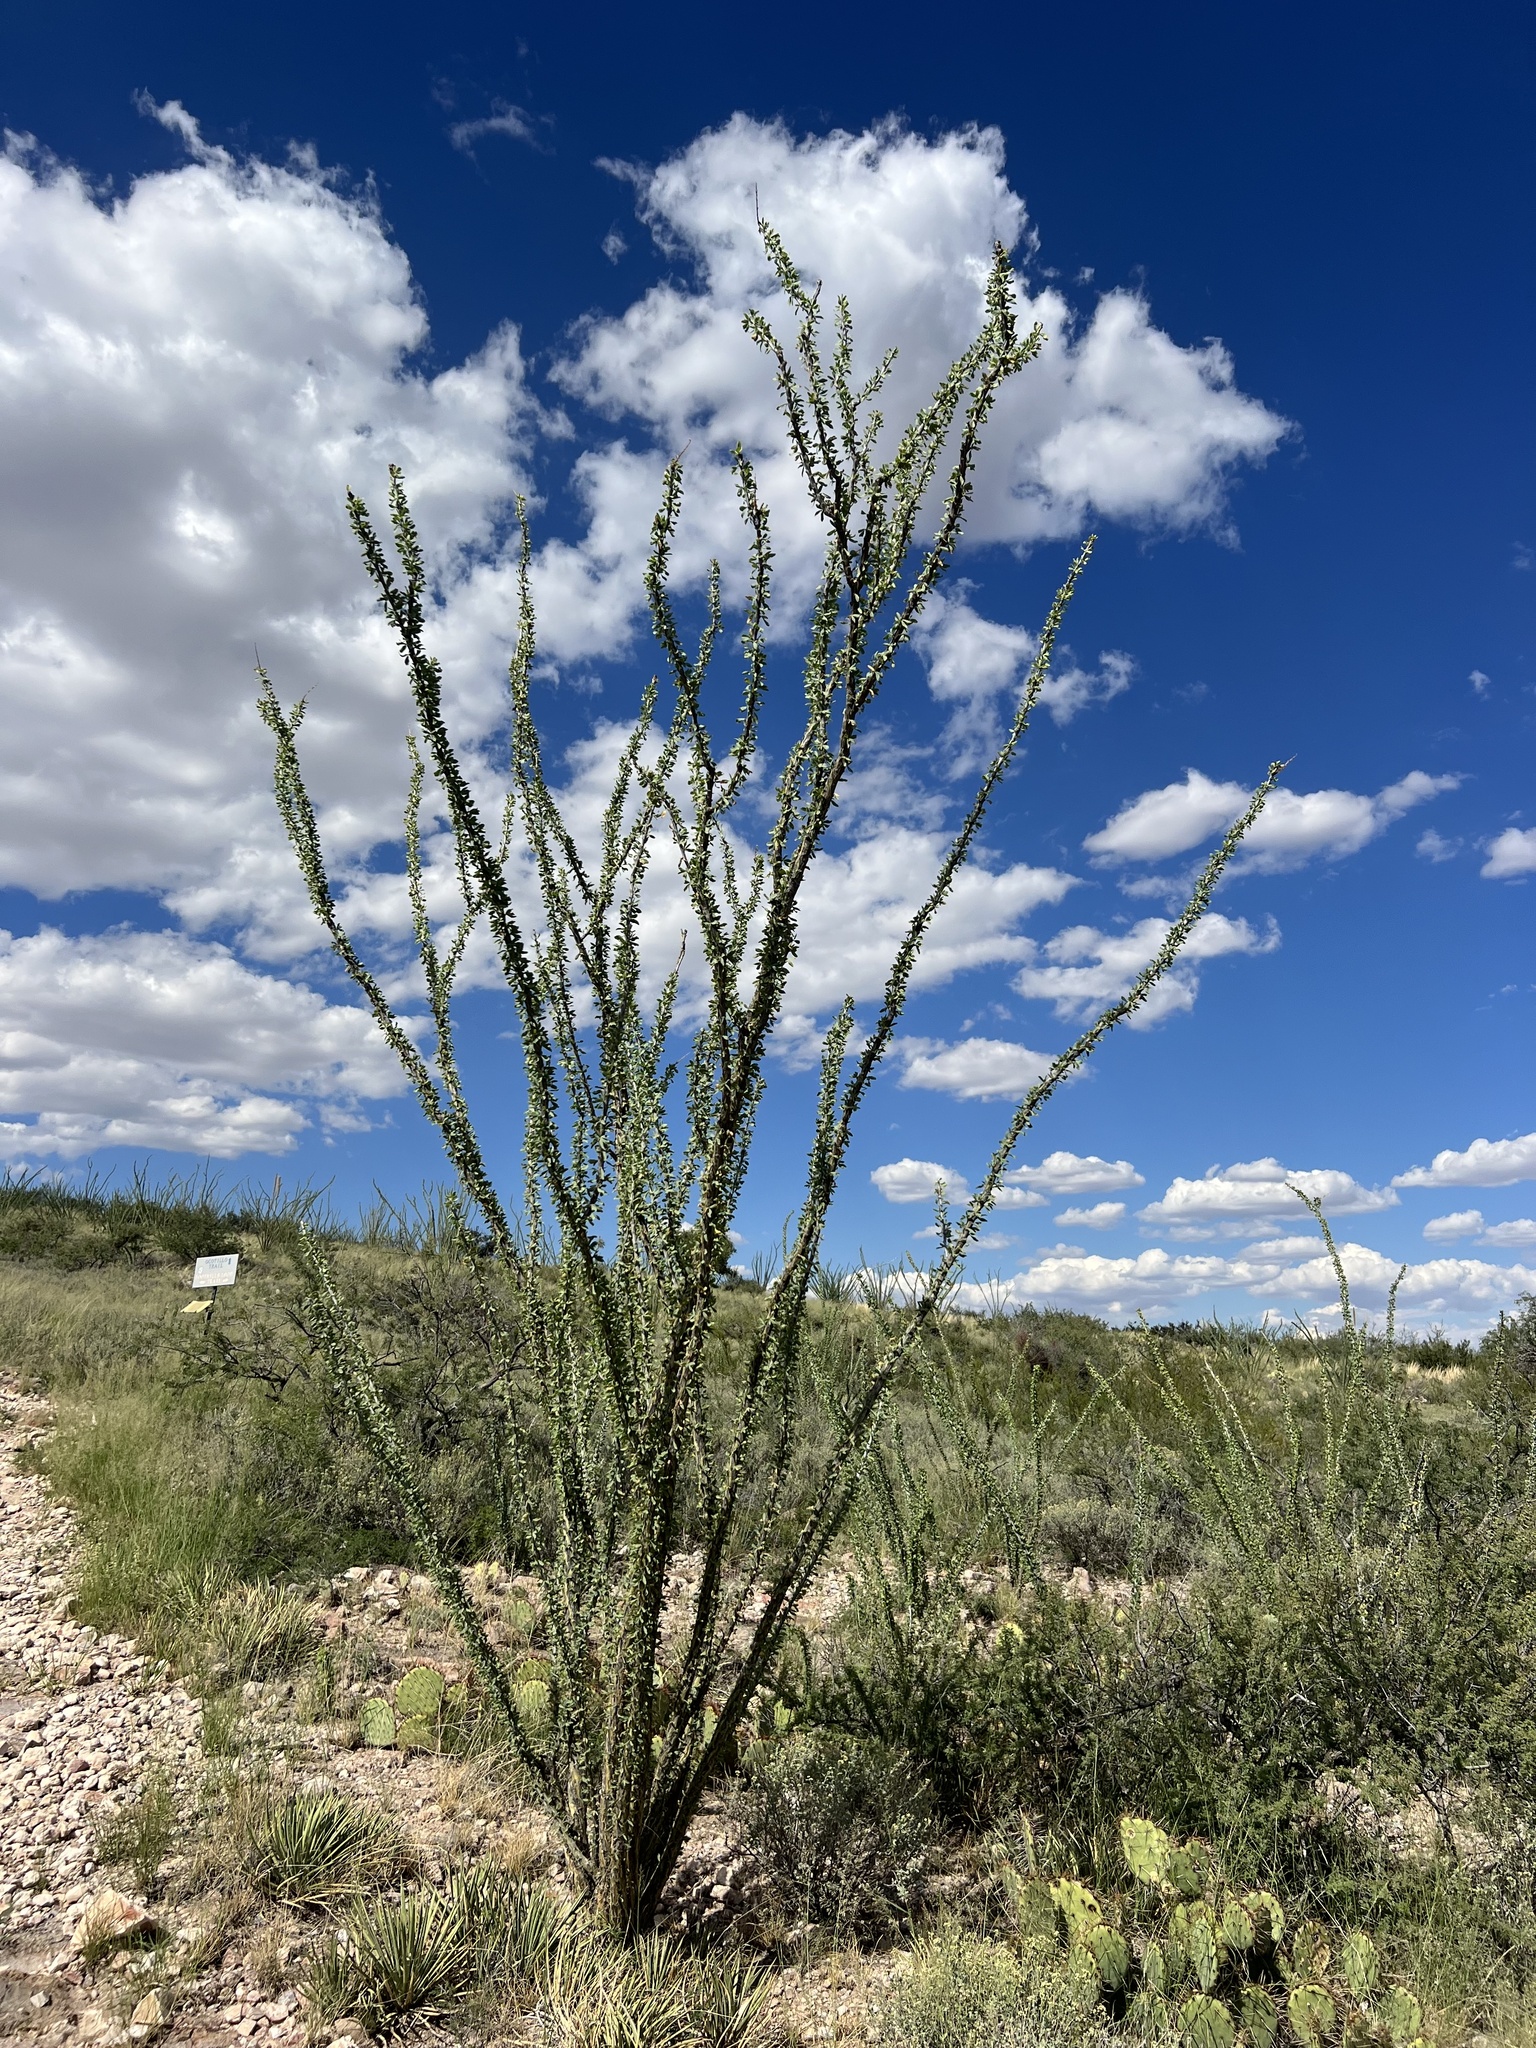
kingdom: Plantae
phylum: Tracheophyta
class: Magnoliopsida
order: Ericales
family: Fouquieriaceae
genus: Fouquieria
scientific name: Fouquieria splendens
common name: Vine-cactus
